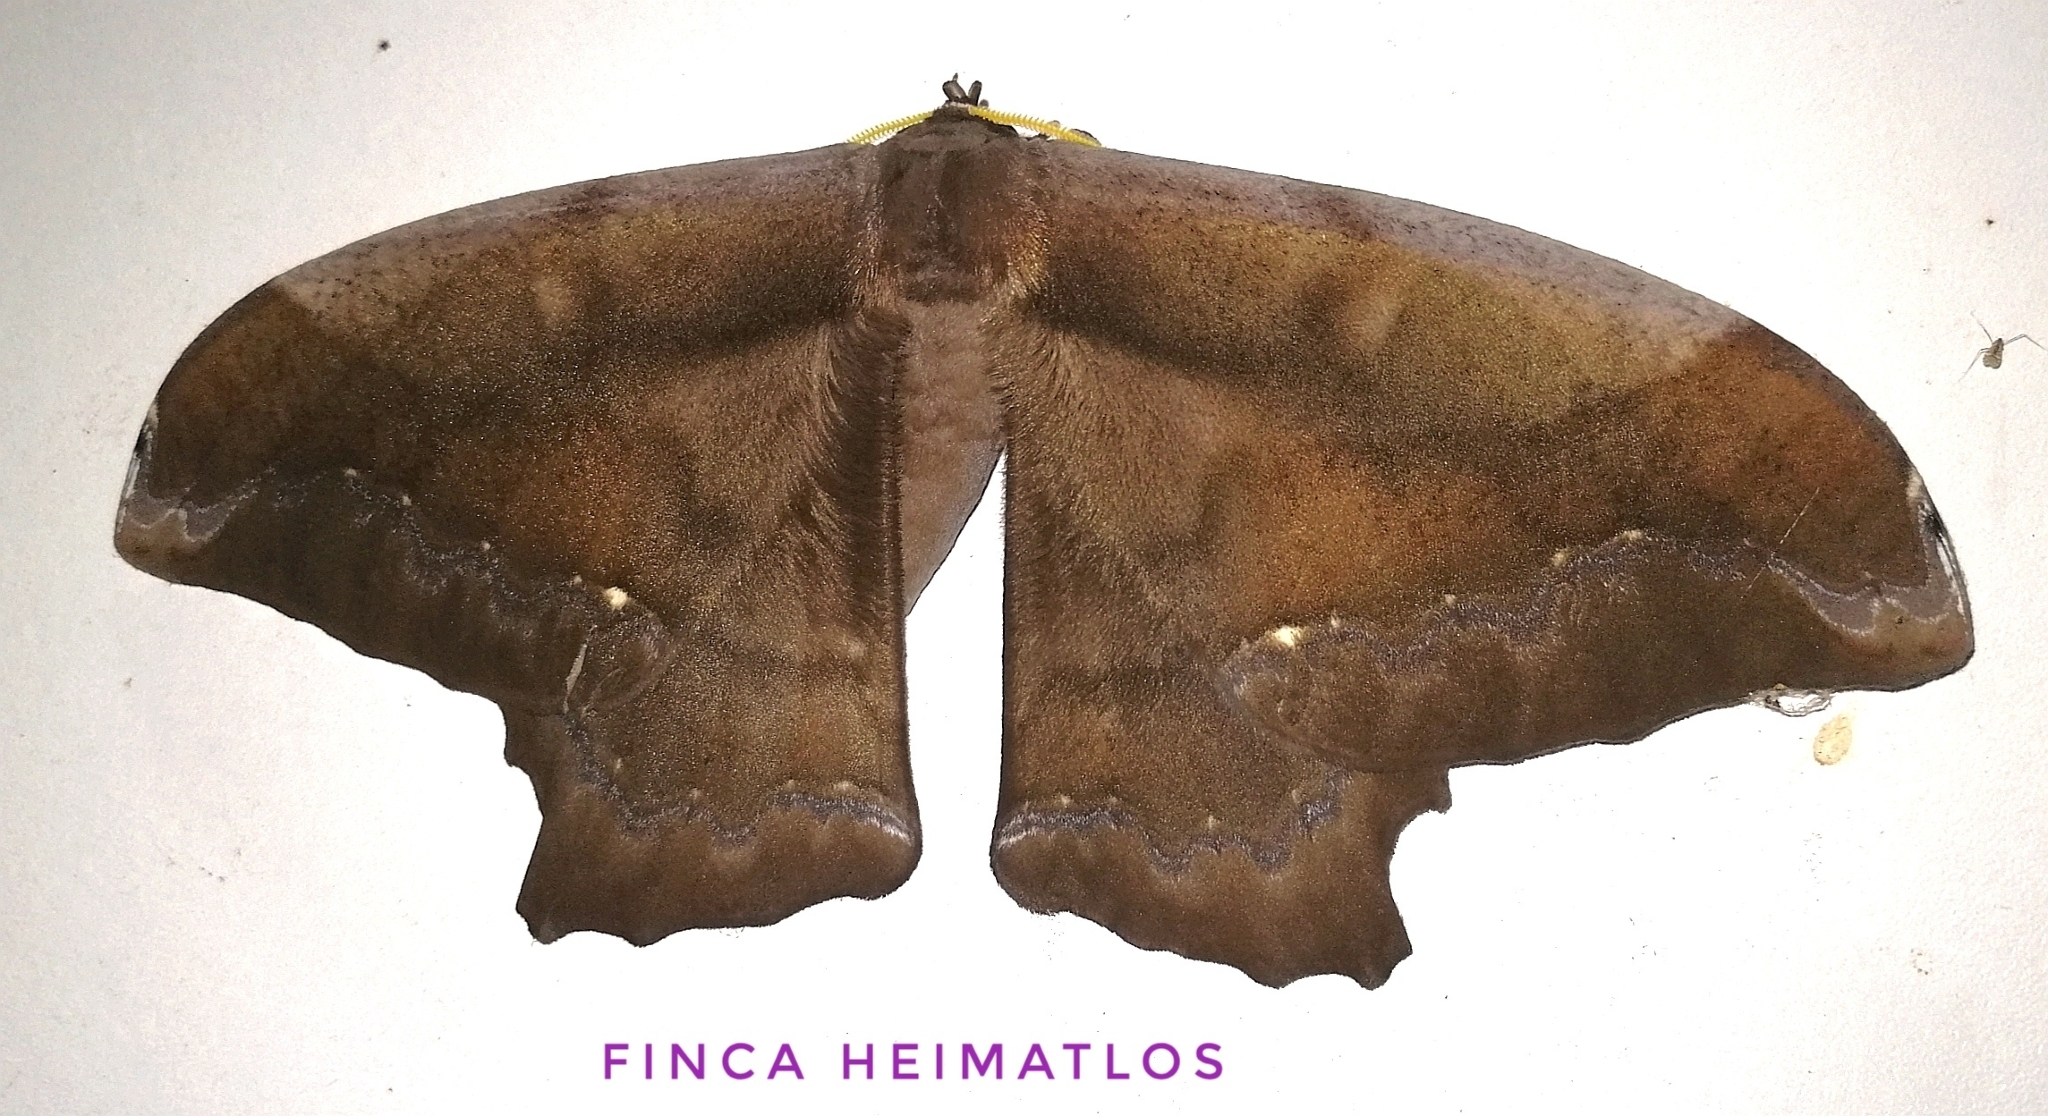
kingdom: Animalia
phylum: Arthropoda
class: Insecta
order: Lepidoptera
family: Saturniidae
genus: Arsenura
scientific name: Arsenura batesii
